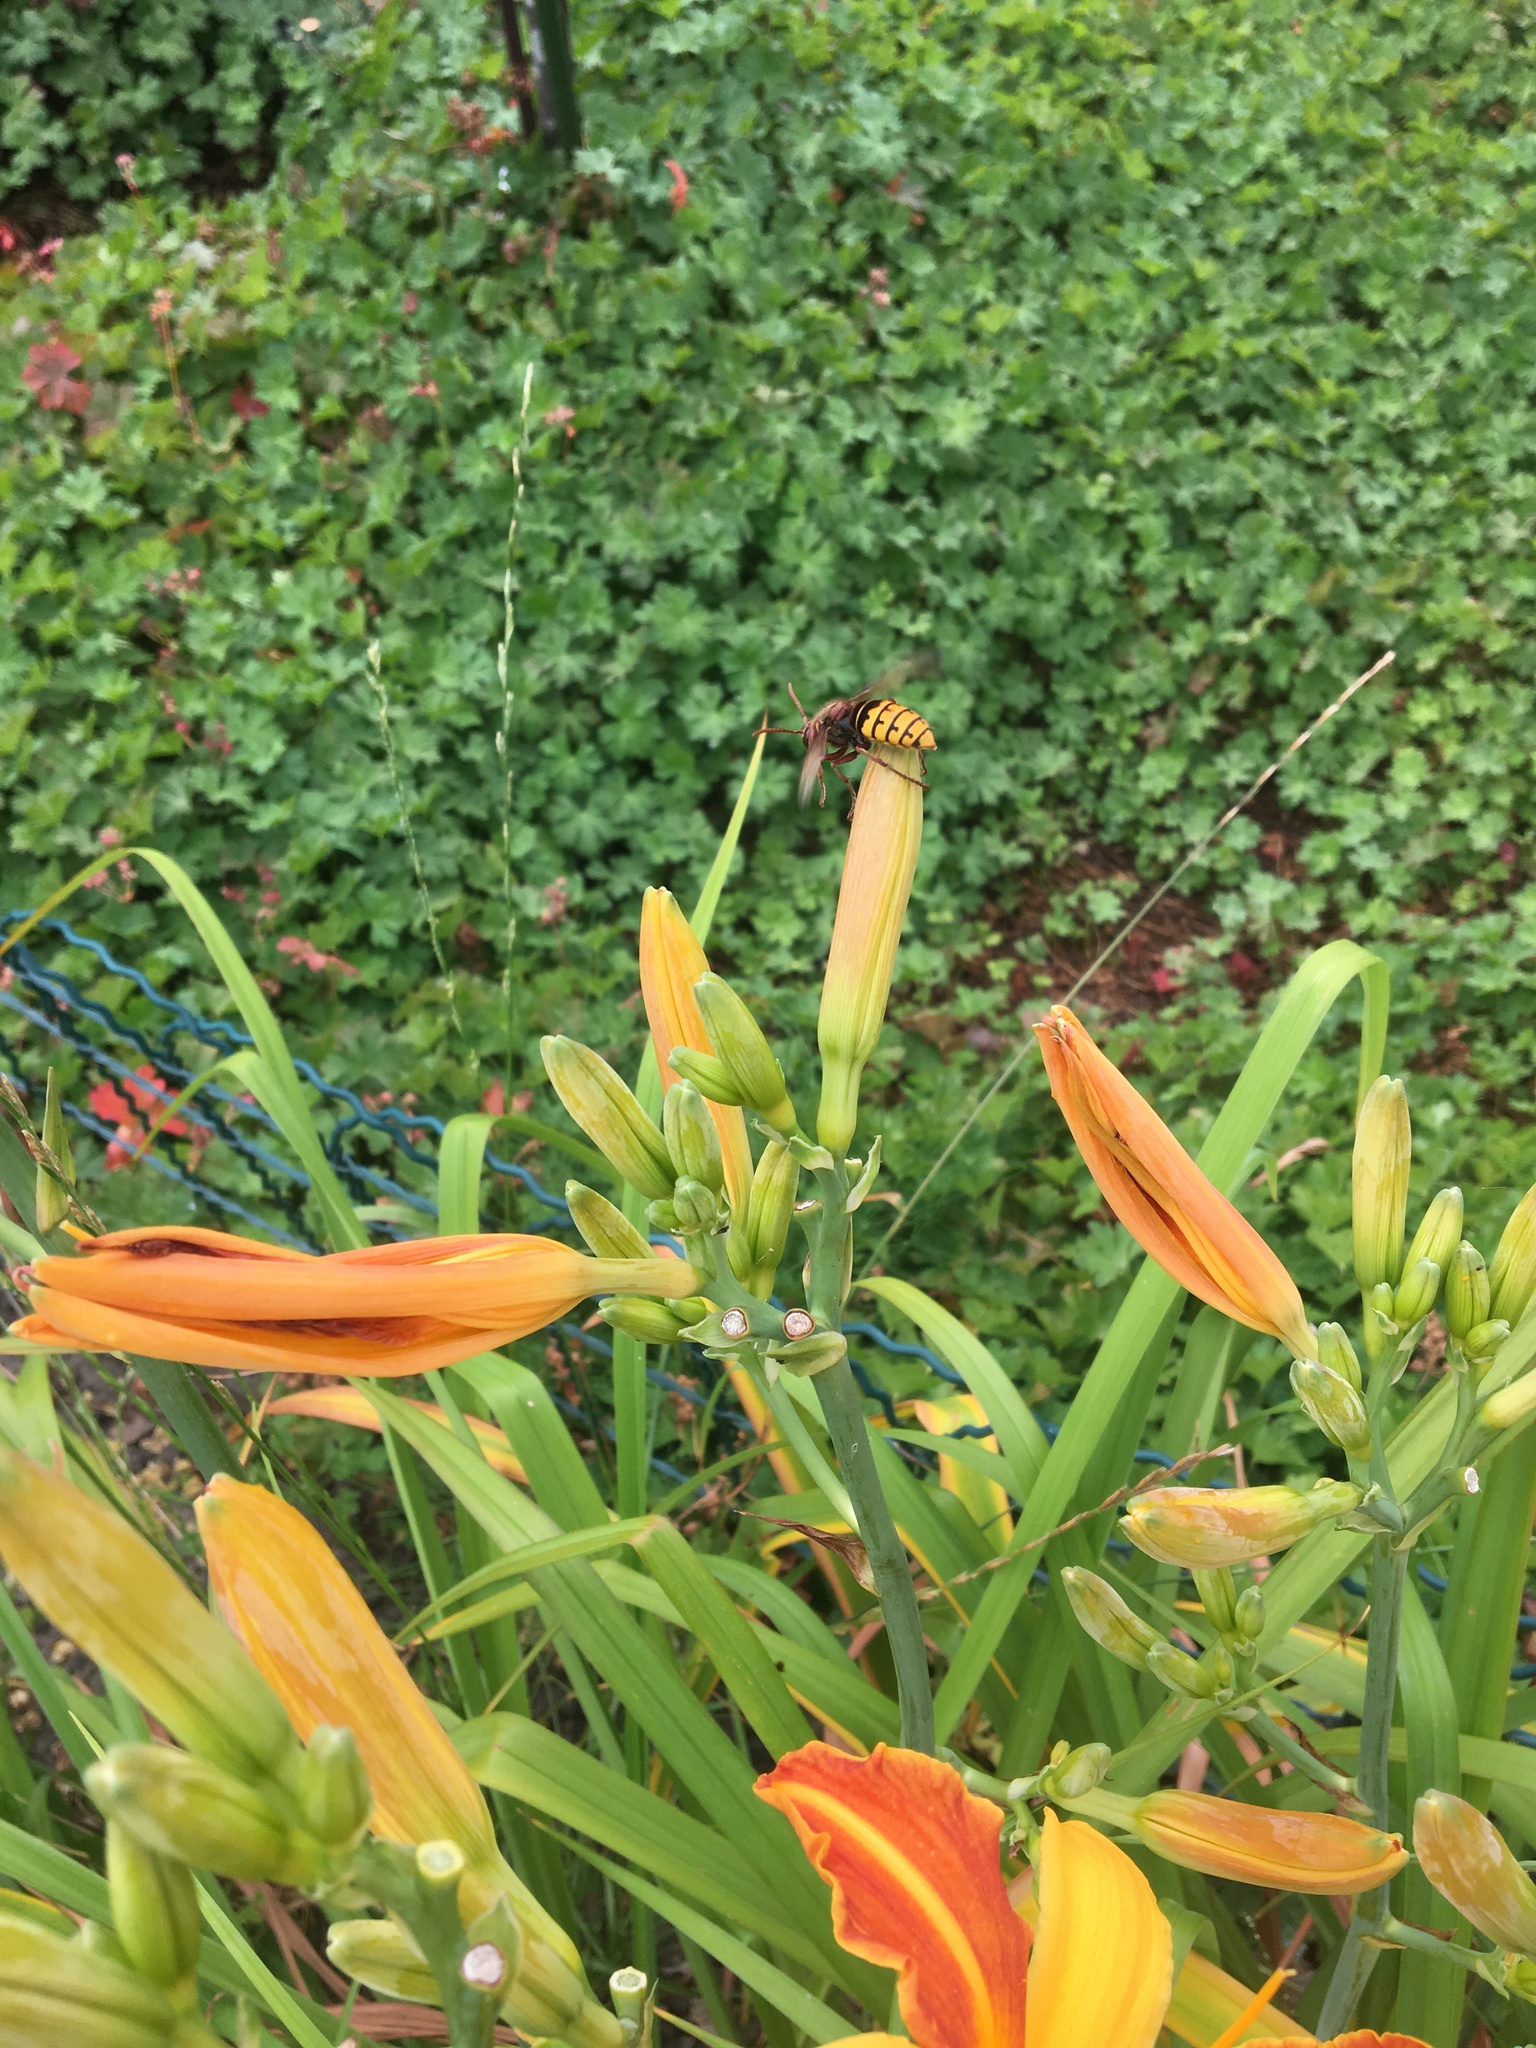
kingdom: Animalia
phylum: Arthropoda
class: Insecta
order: Hymenoptera
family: Vespidae
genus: Vespa
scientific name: Vespa crabro
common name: Hornet
